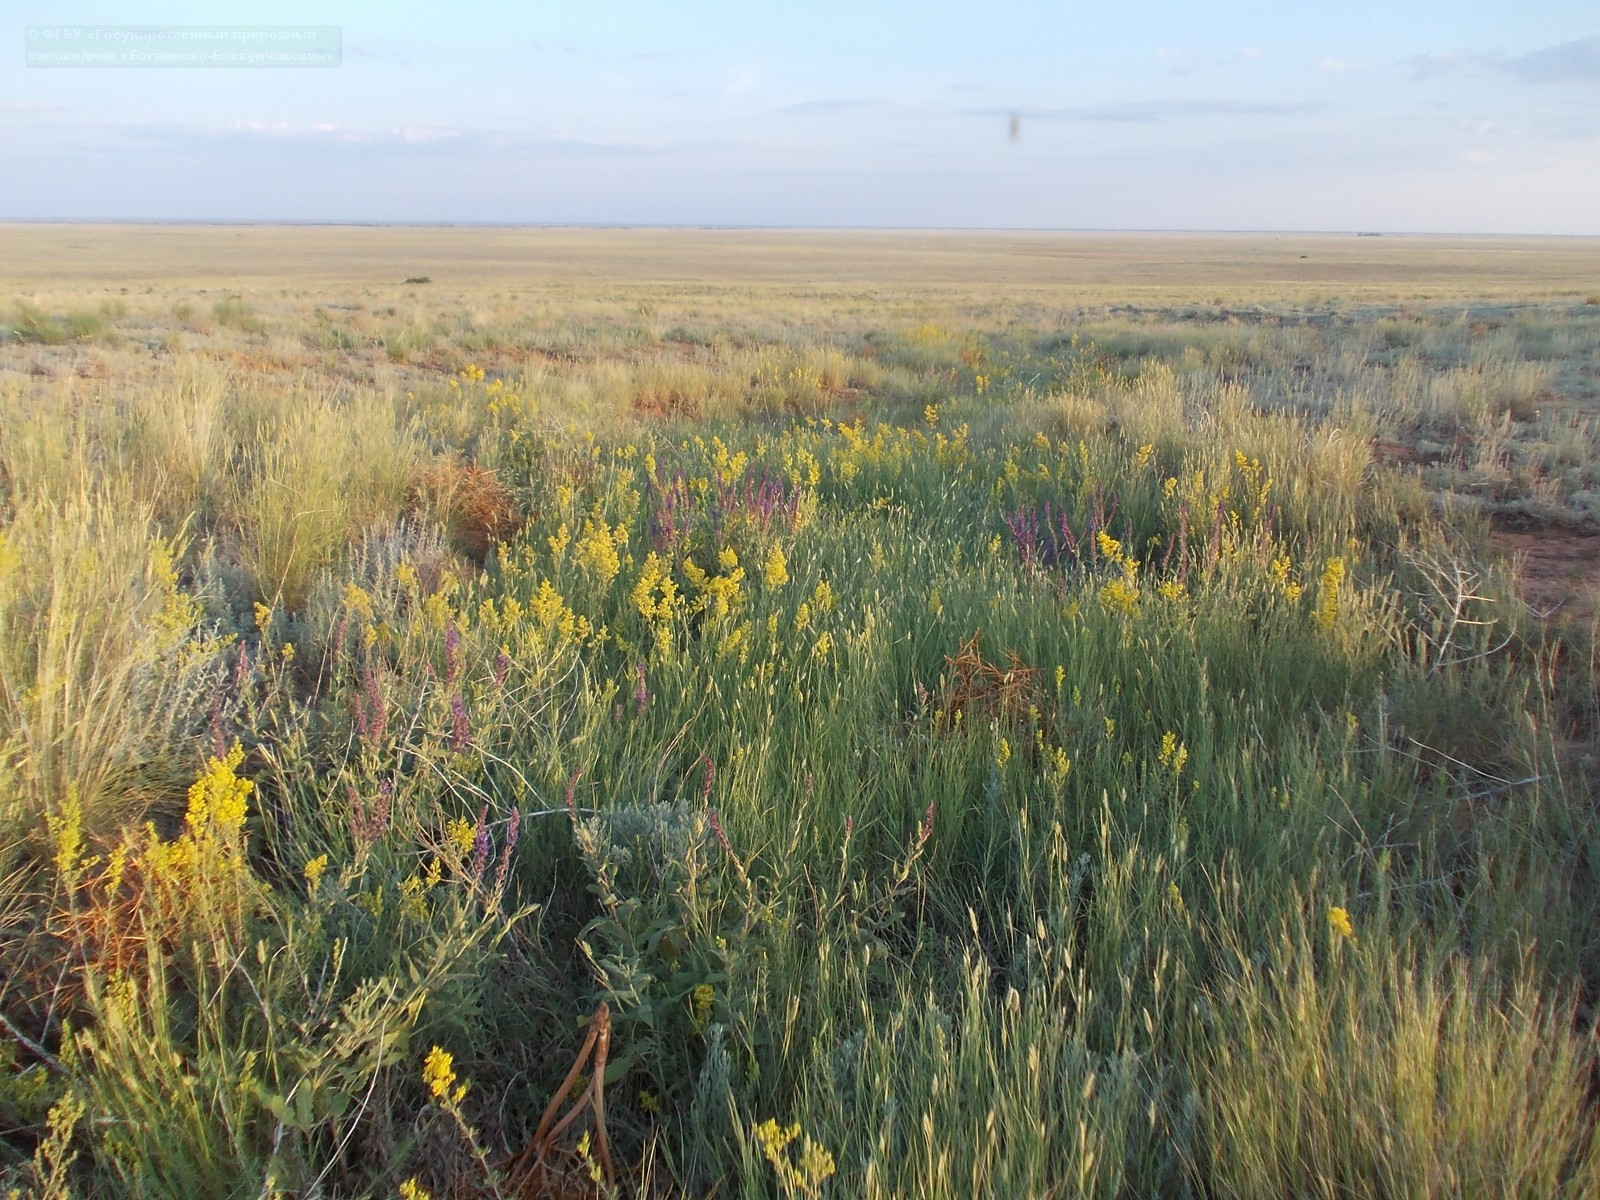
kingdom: Plantae
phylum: Tracheophyta
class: Magnoliopsida
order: Gentianales
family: Rubiaceae
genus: Galium
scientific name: Galium verum
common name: Lady's bedstraw
